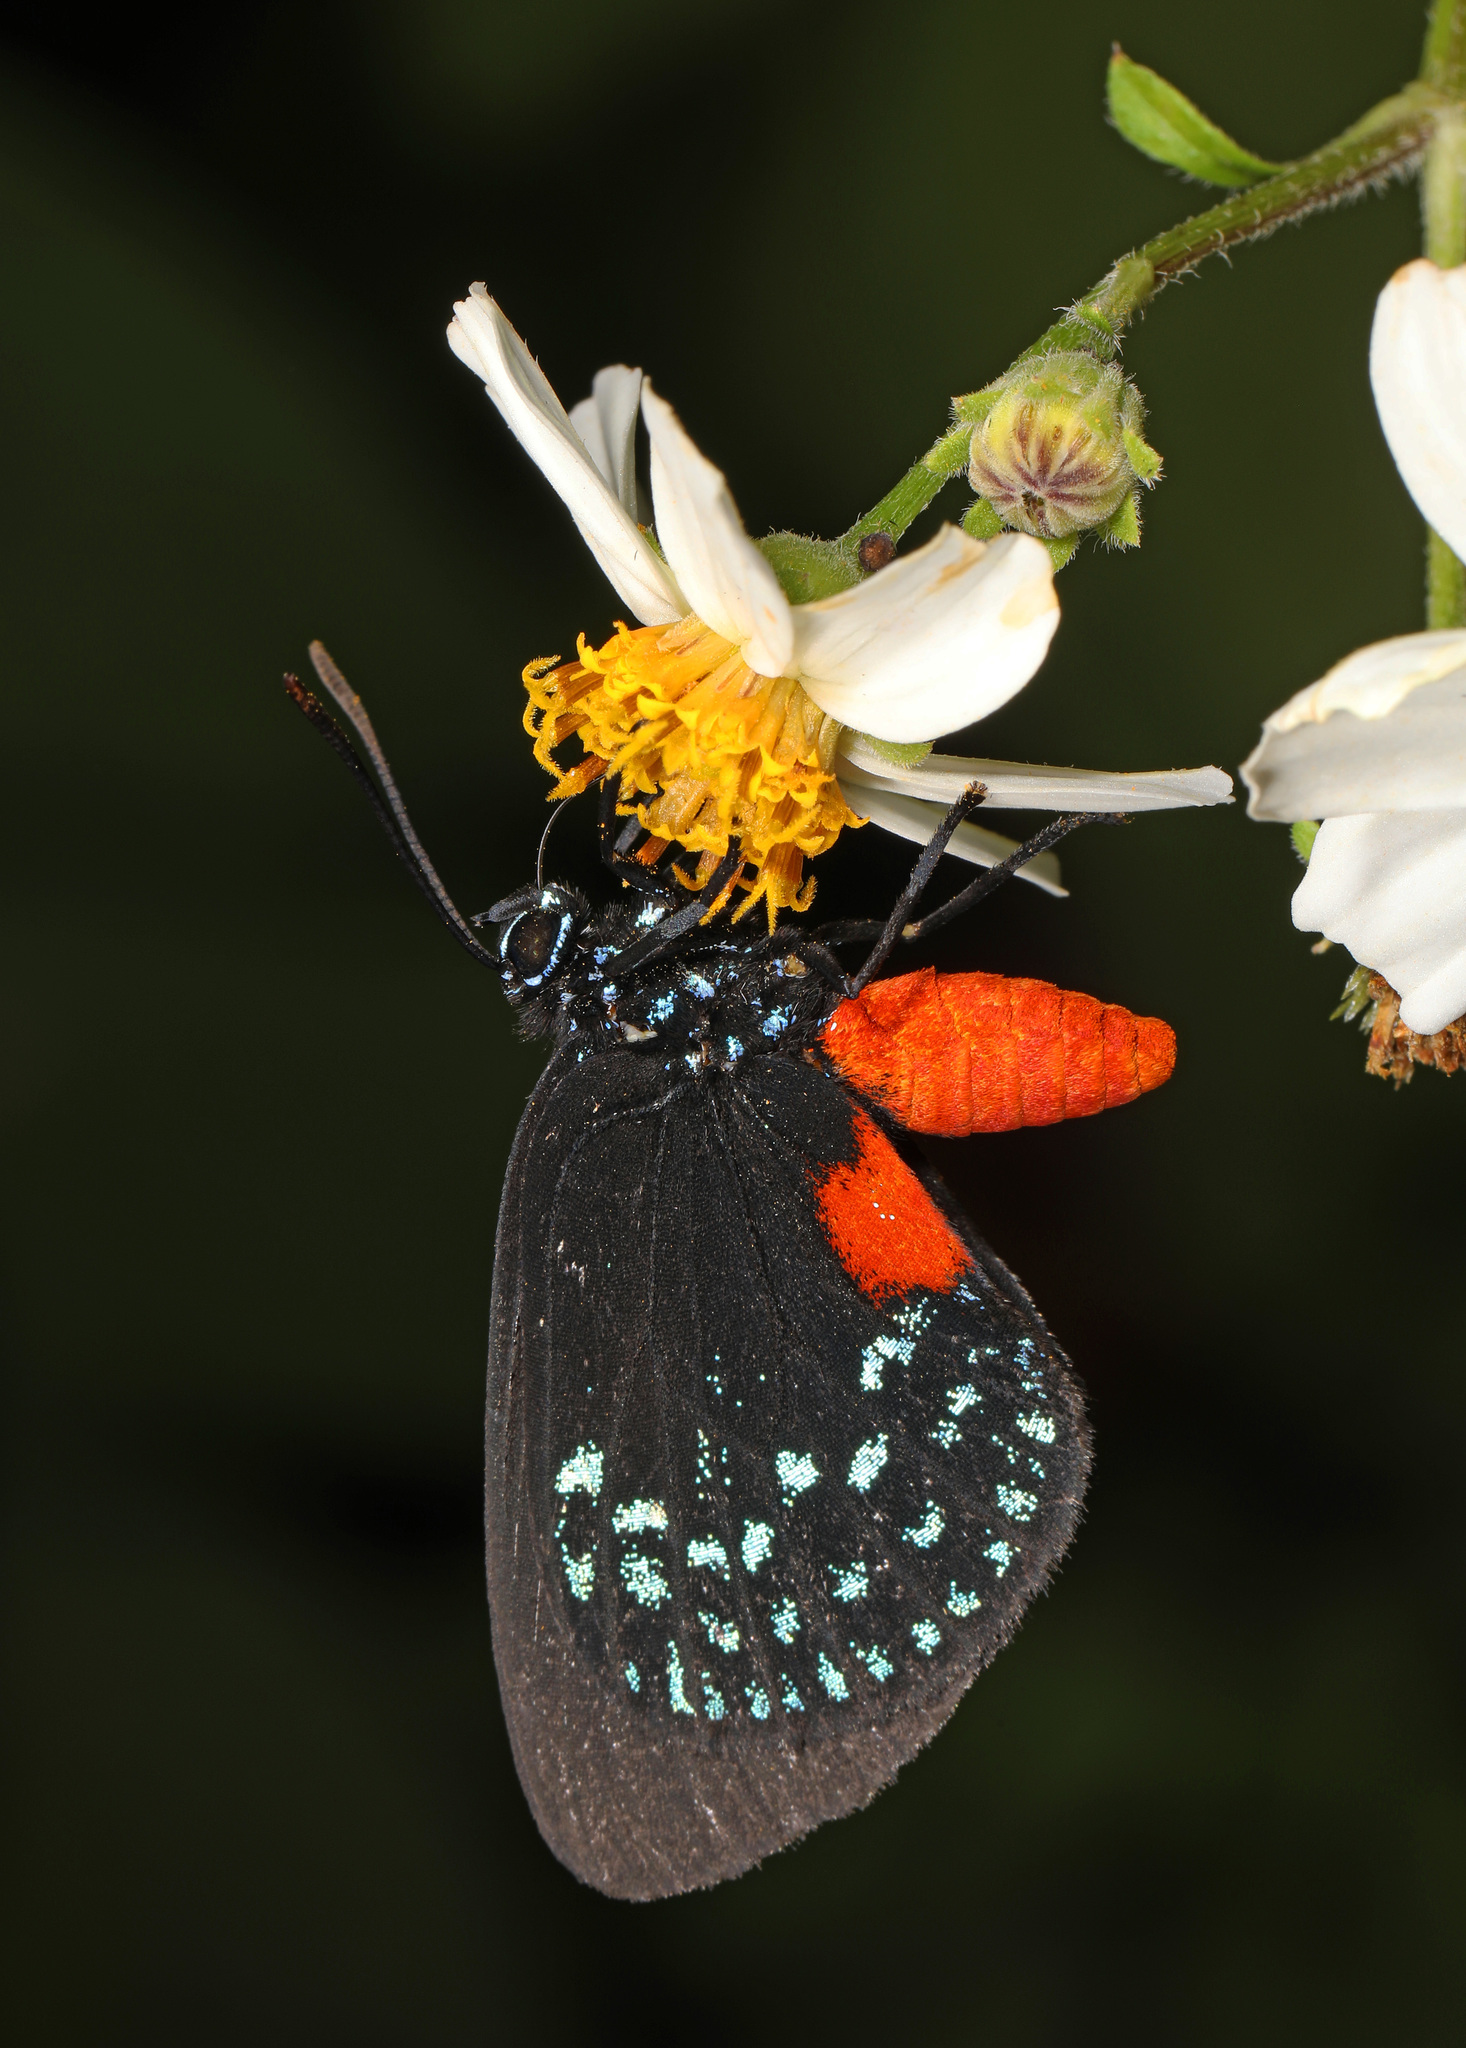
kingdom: Animalia
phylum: Arthropoda
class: Insecta
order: Lepidoptera
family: Lycaenidae
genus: Eumaeus
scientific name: Eumaeus atala
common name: Atala
